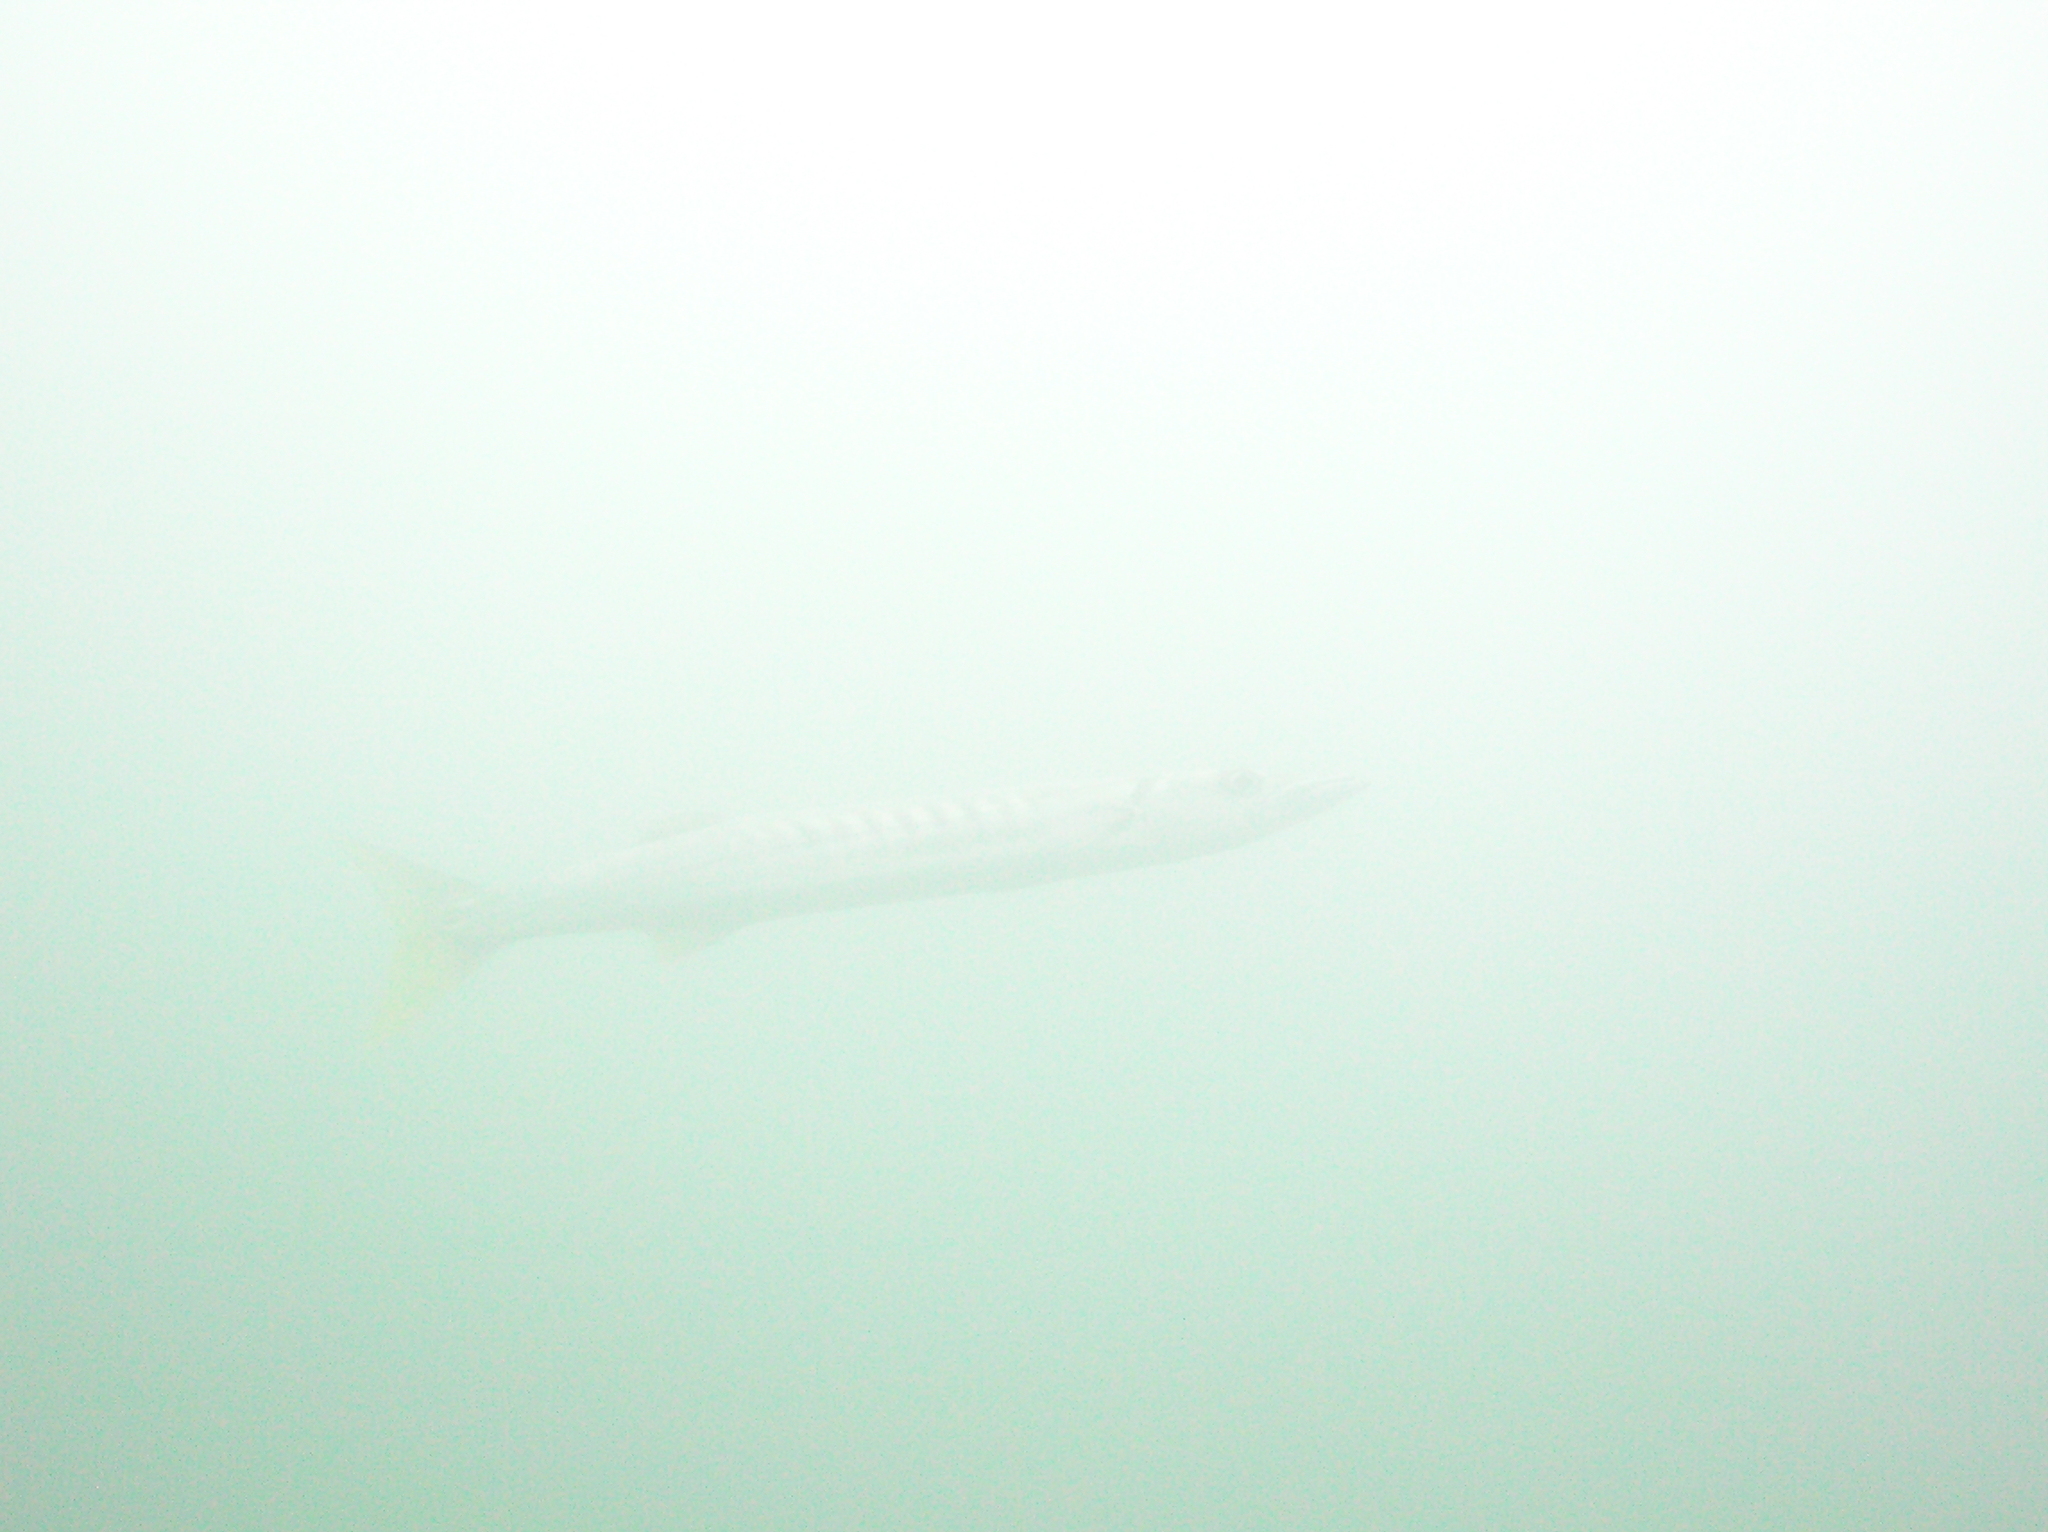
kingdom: Animalia
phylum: Chordata
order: Perciformes
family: Sphyraenidae
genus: Sphyraena
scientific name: Sphyraena jello
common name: Pickhandle barracuda
